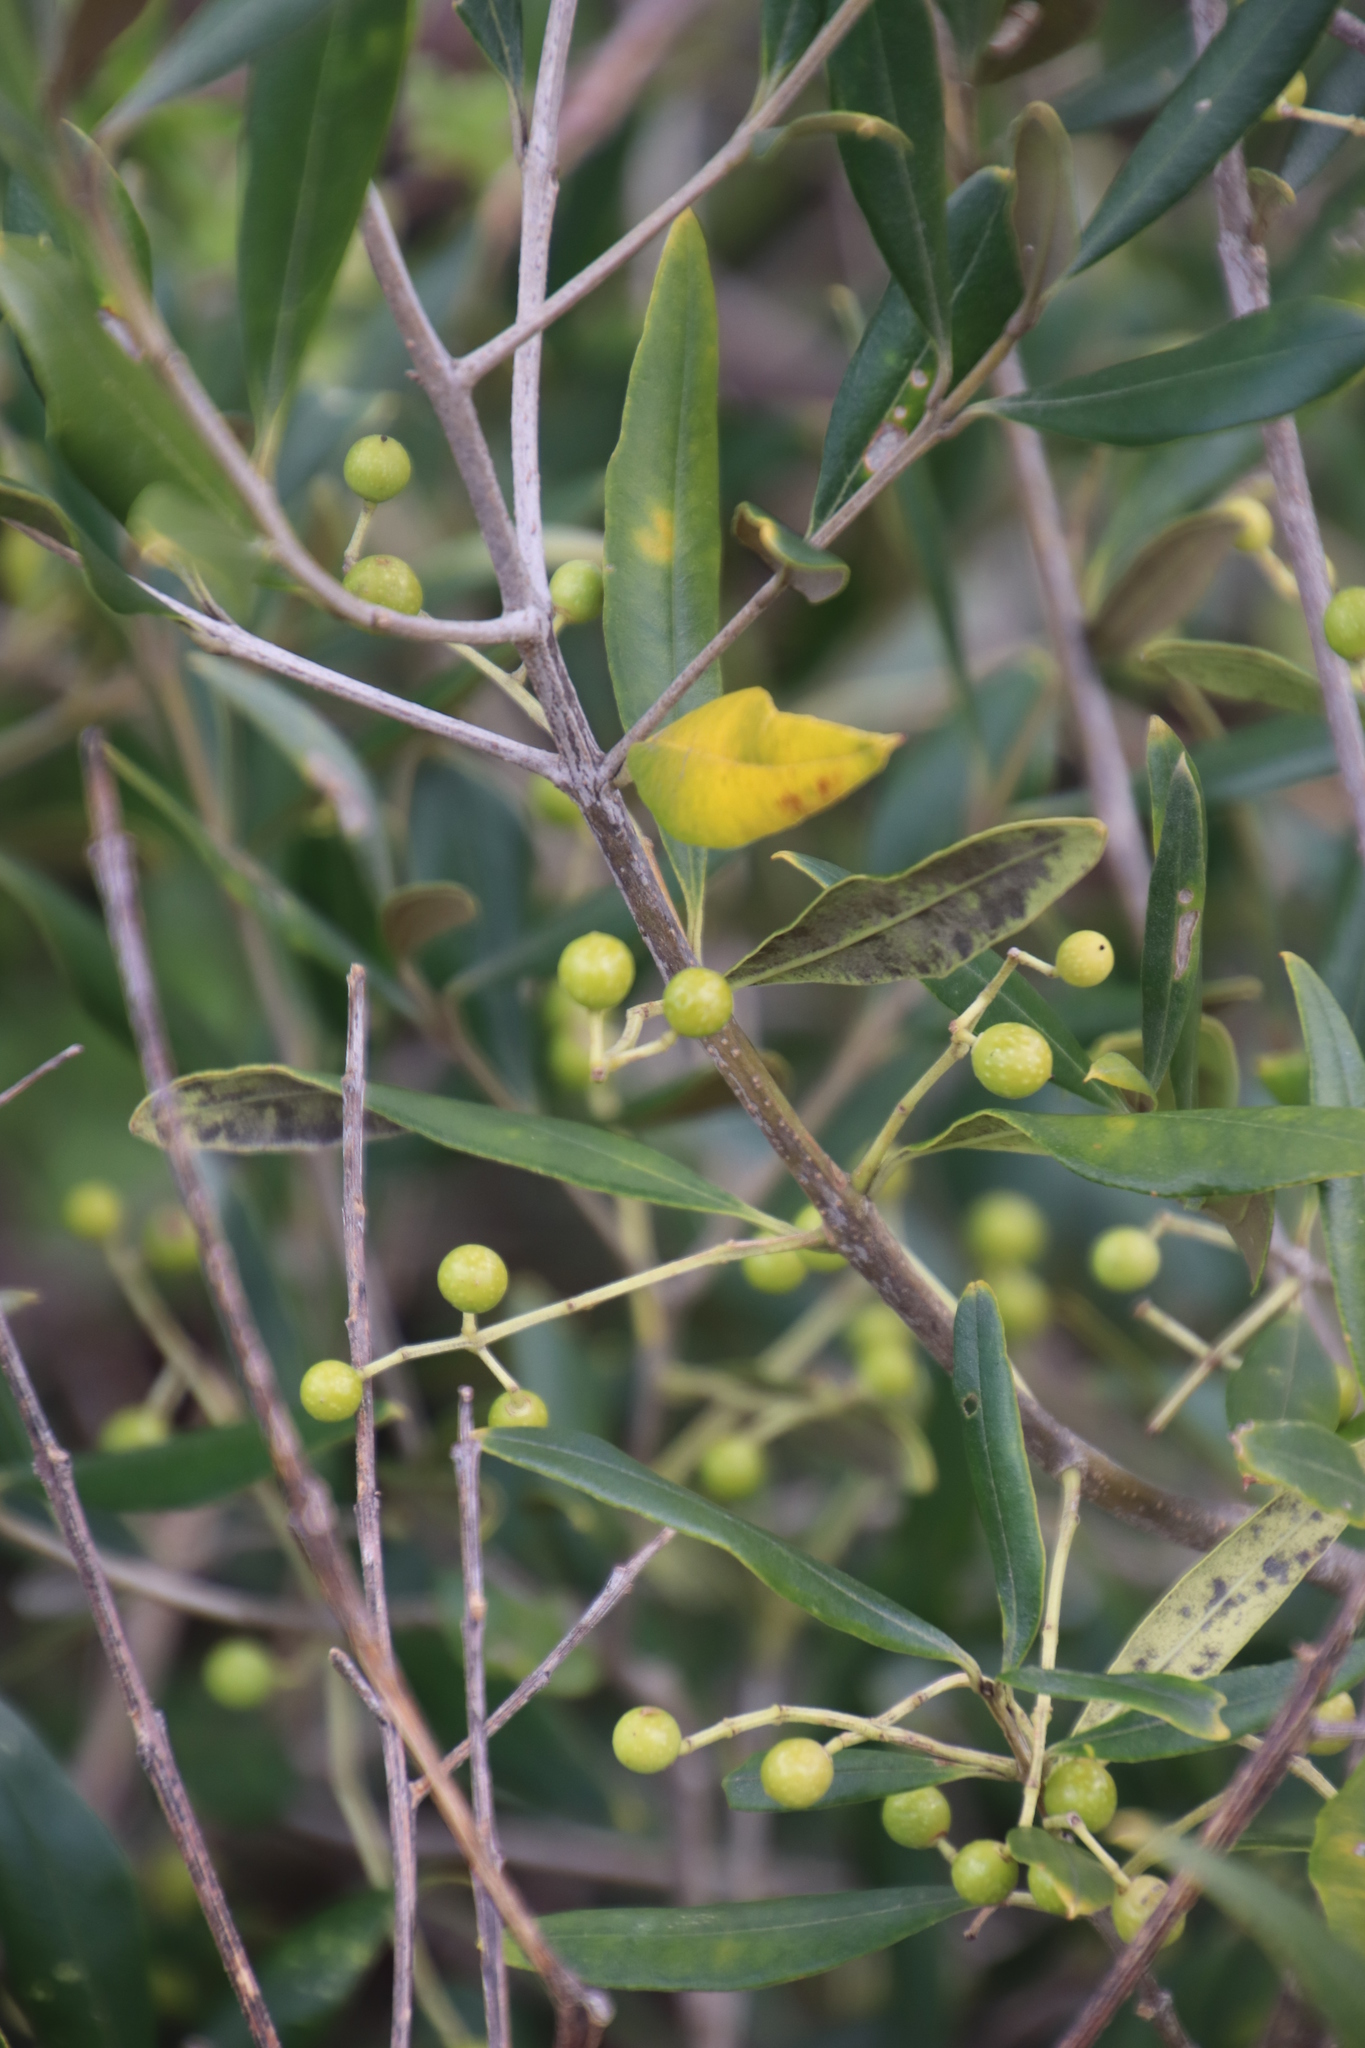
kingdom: Plantae
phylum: Tracheophyta
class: Magnoliopsida
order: Lamiales
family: Oleaceae
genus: Olea
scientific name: Olea europaea
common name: Olive
